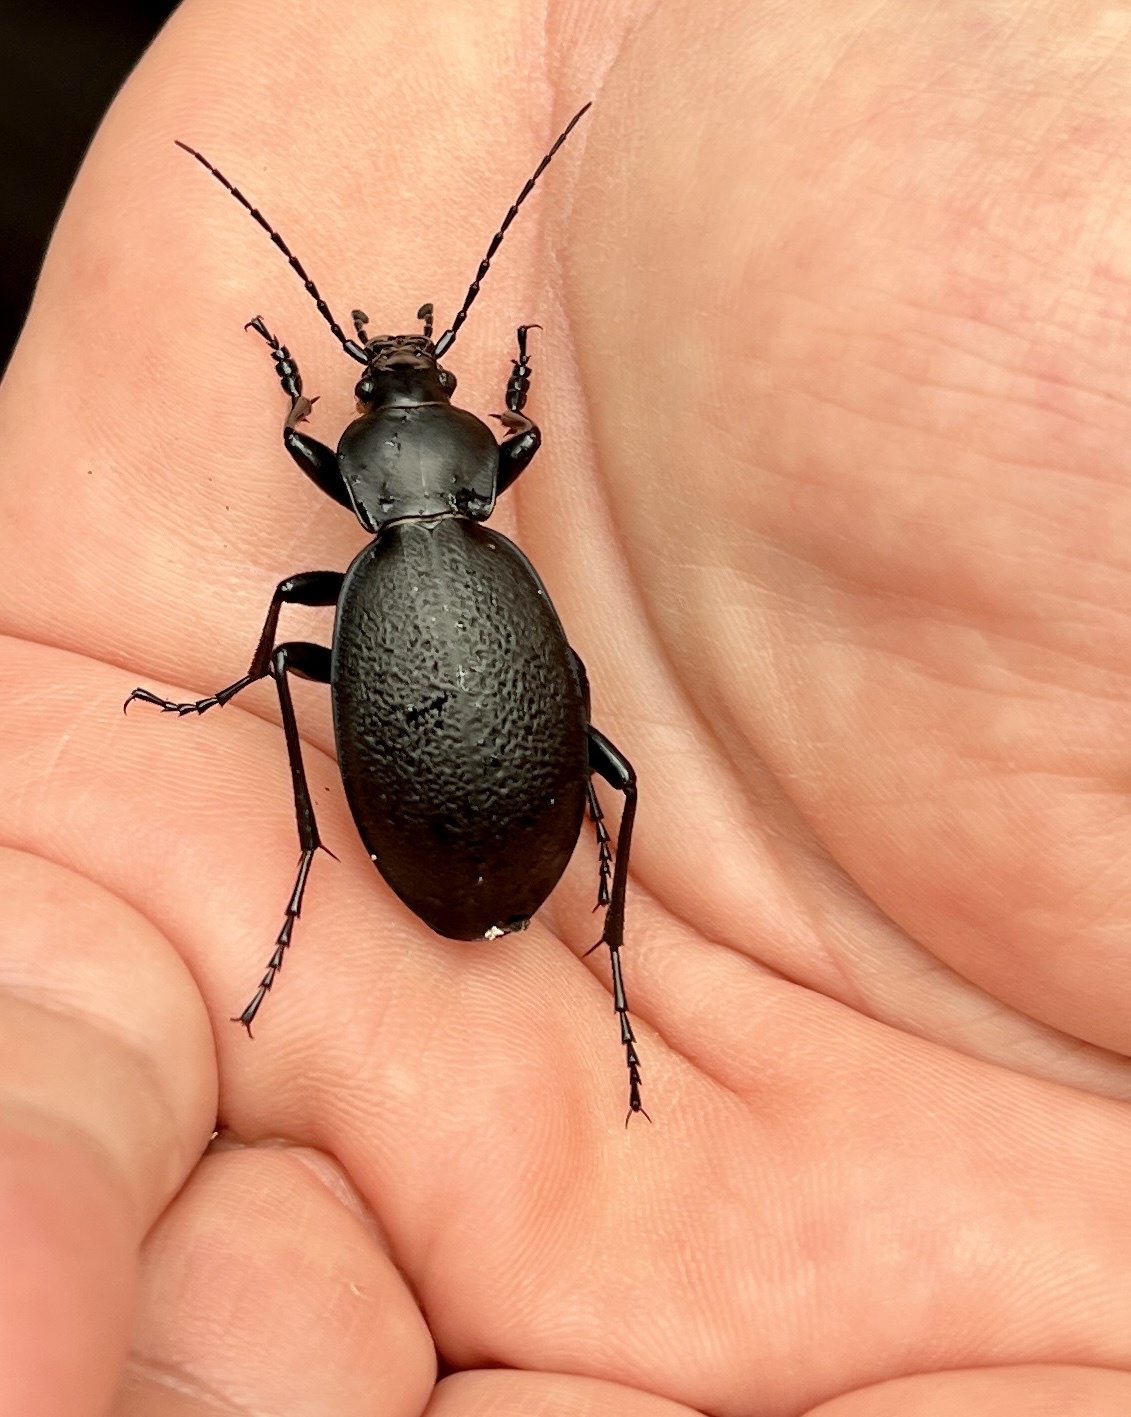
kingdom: Animalia
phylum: Arthropoda
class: Insecta
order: Coleoptera
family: Carabidae
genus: Carabus
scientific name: Carabus coriaceus
